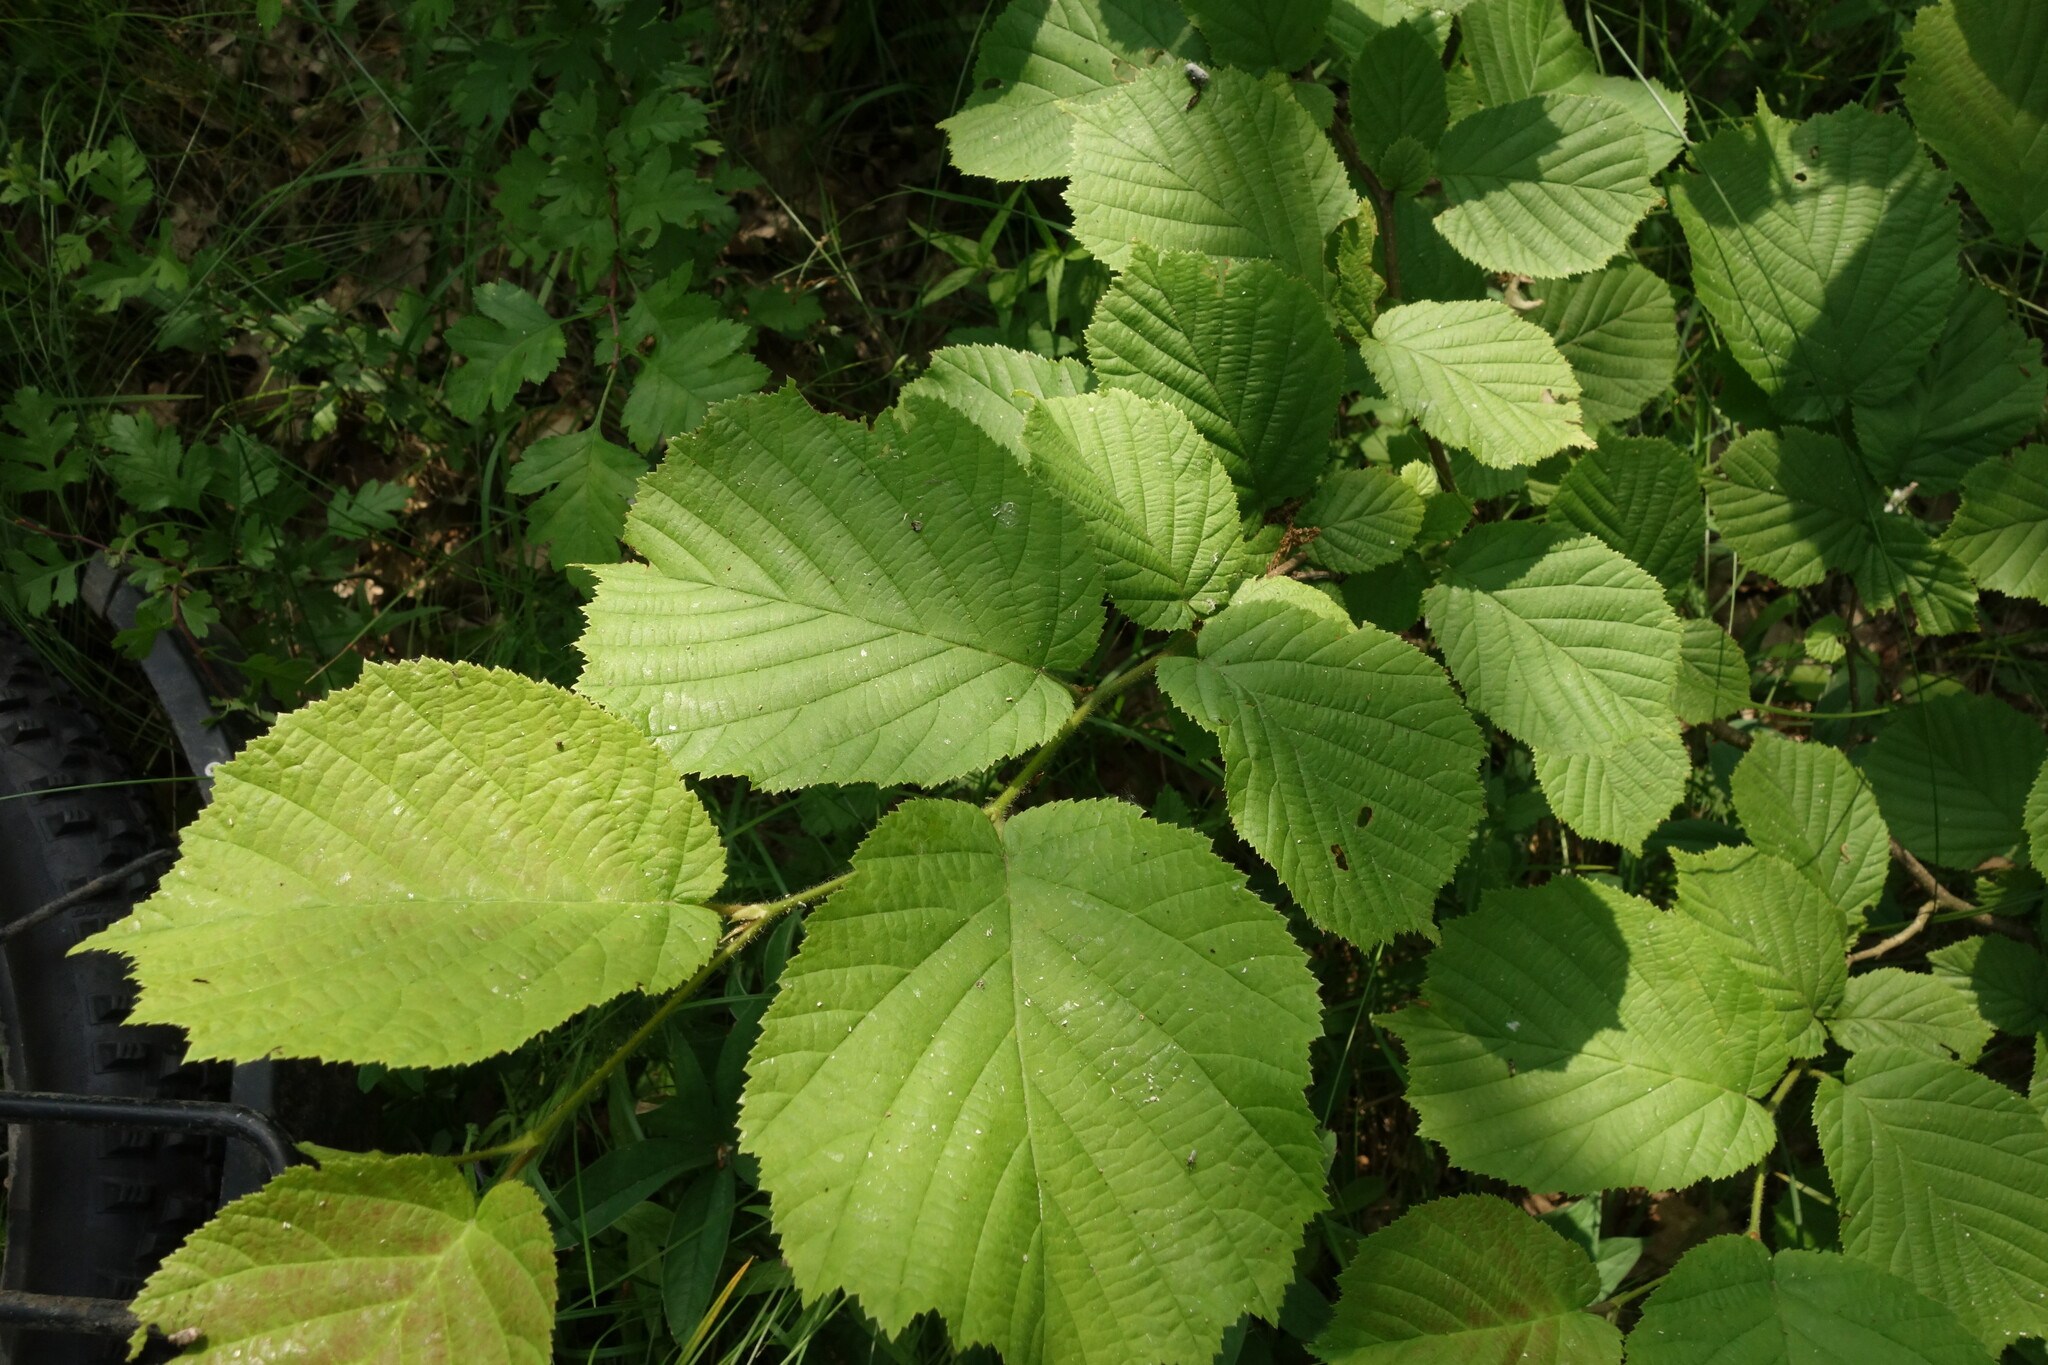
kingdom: Plantae
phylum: Tracheophyta
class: Magnoliopsida
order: Fagales
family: Betulaceae
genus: Corylus
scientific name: Corylus avellana
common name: European hazel
